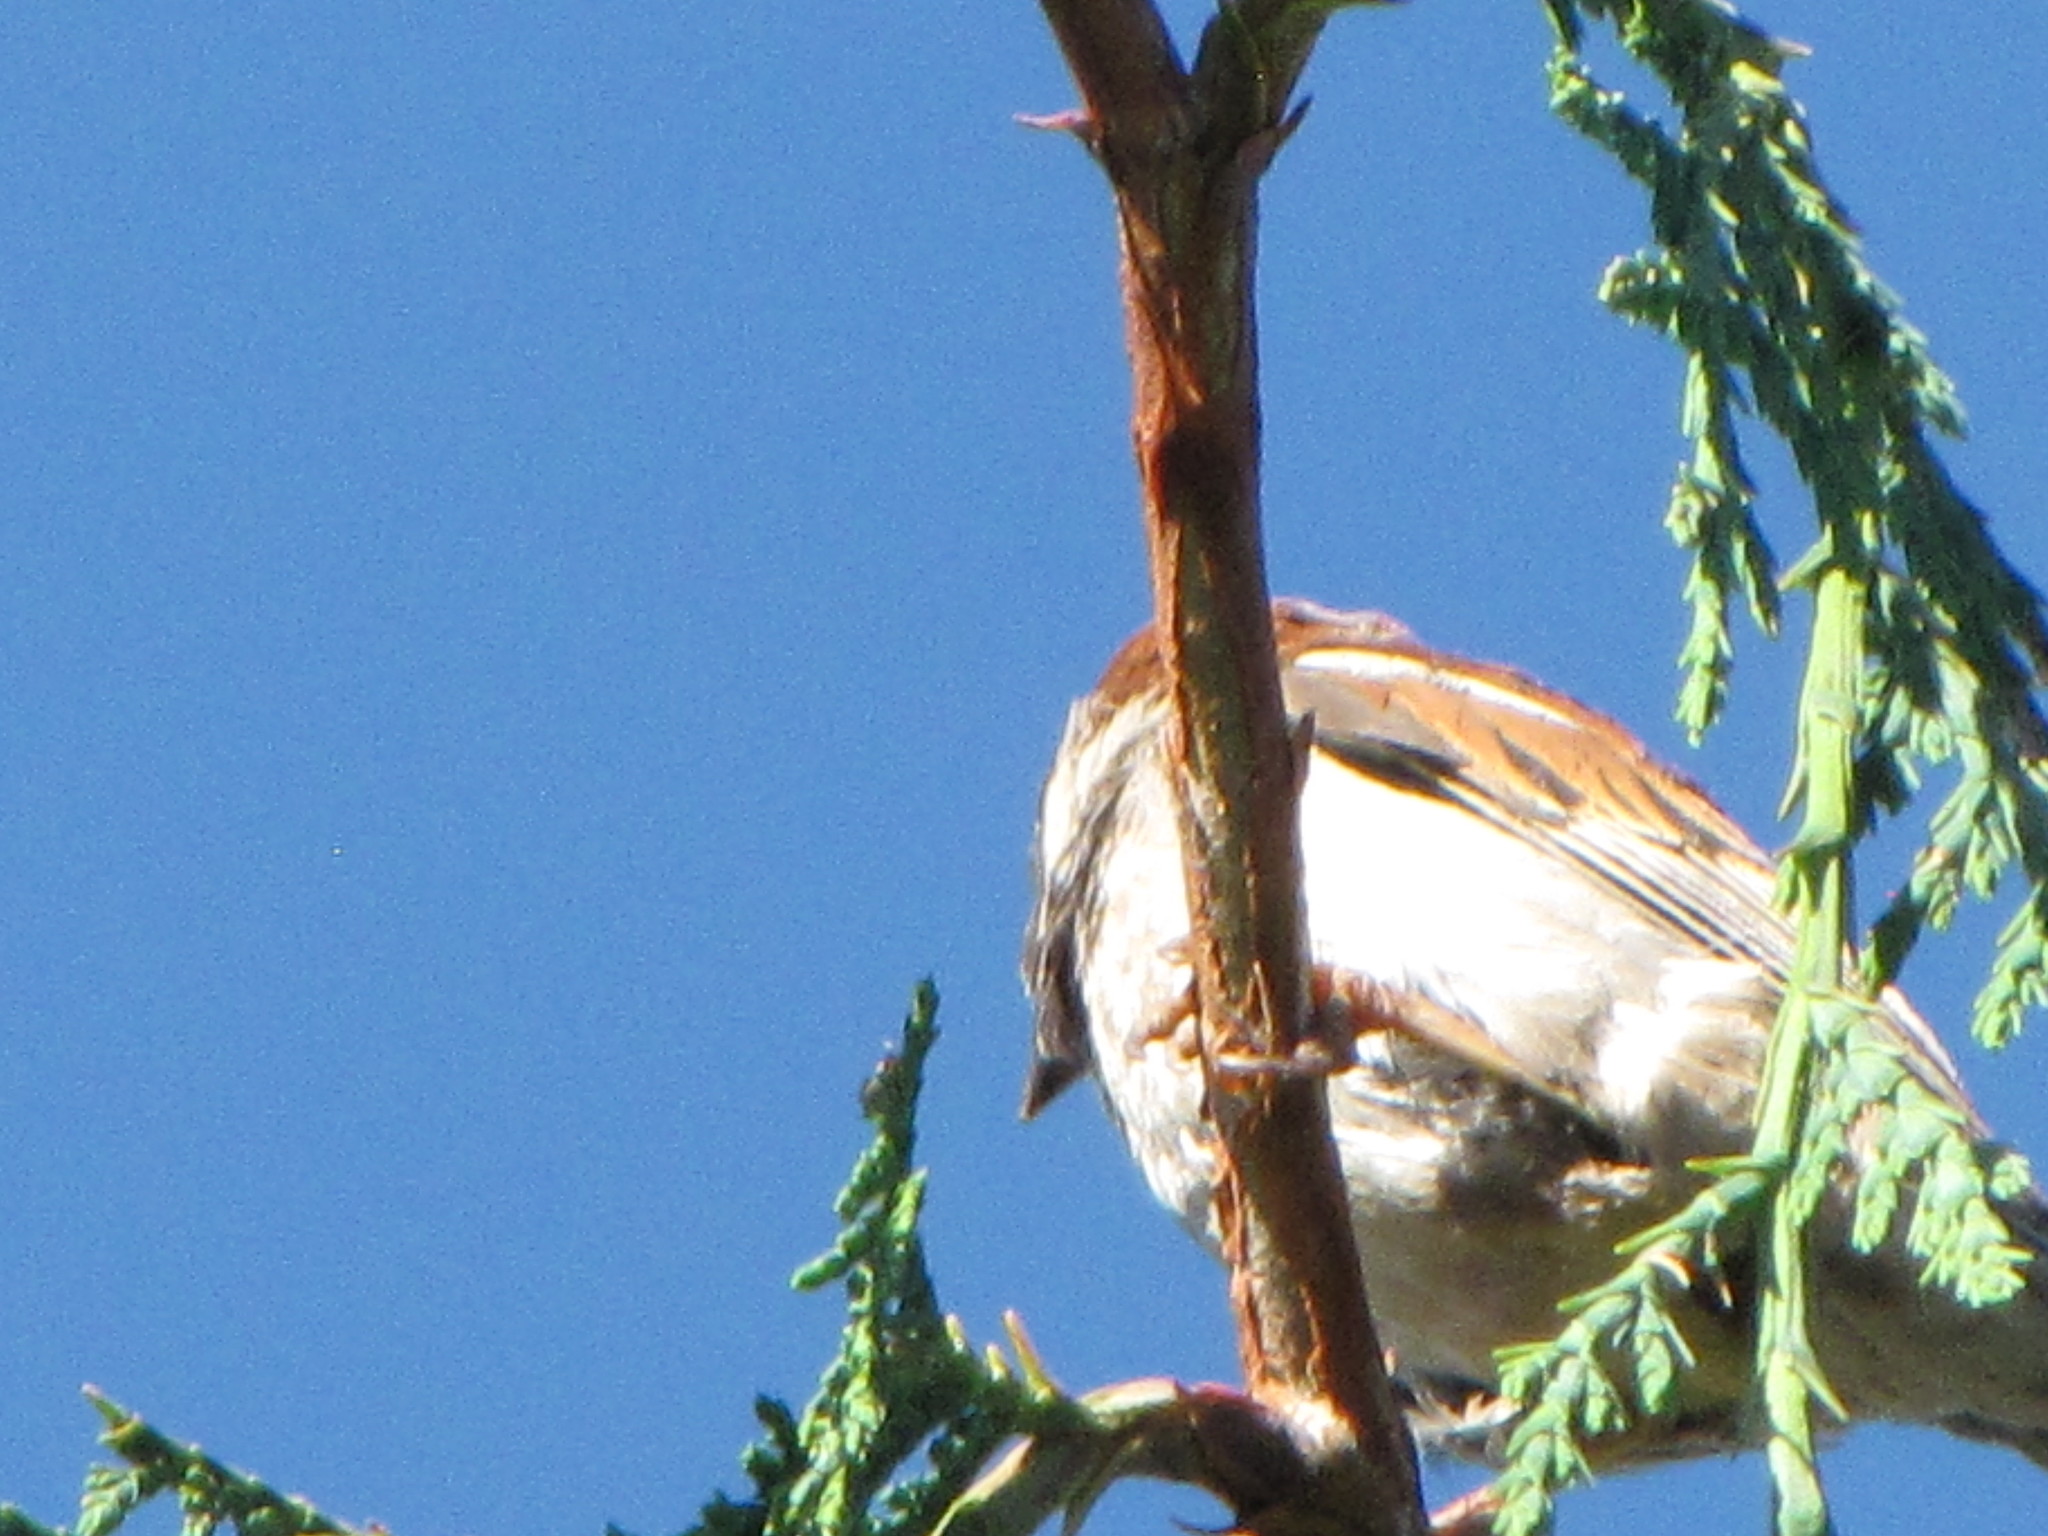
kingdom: Animalia
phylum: Chordata
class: Aves
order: Passeriformes
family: Passeridae
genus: Passer
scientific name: Passer domesticus
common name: House sparrow
